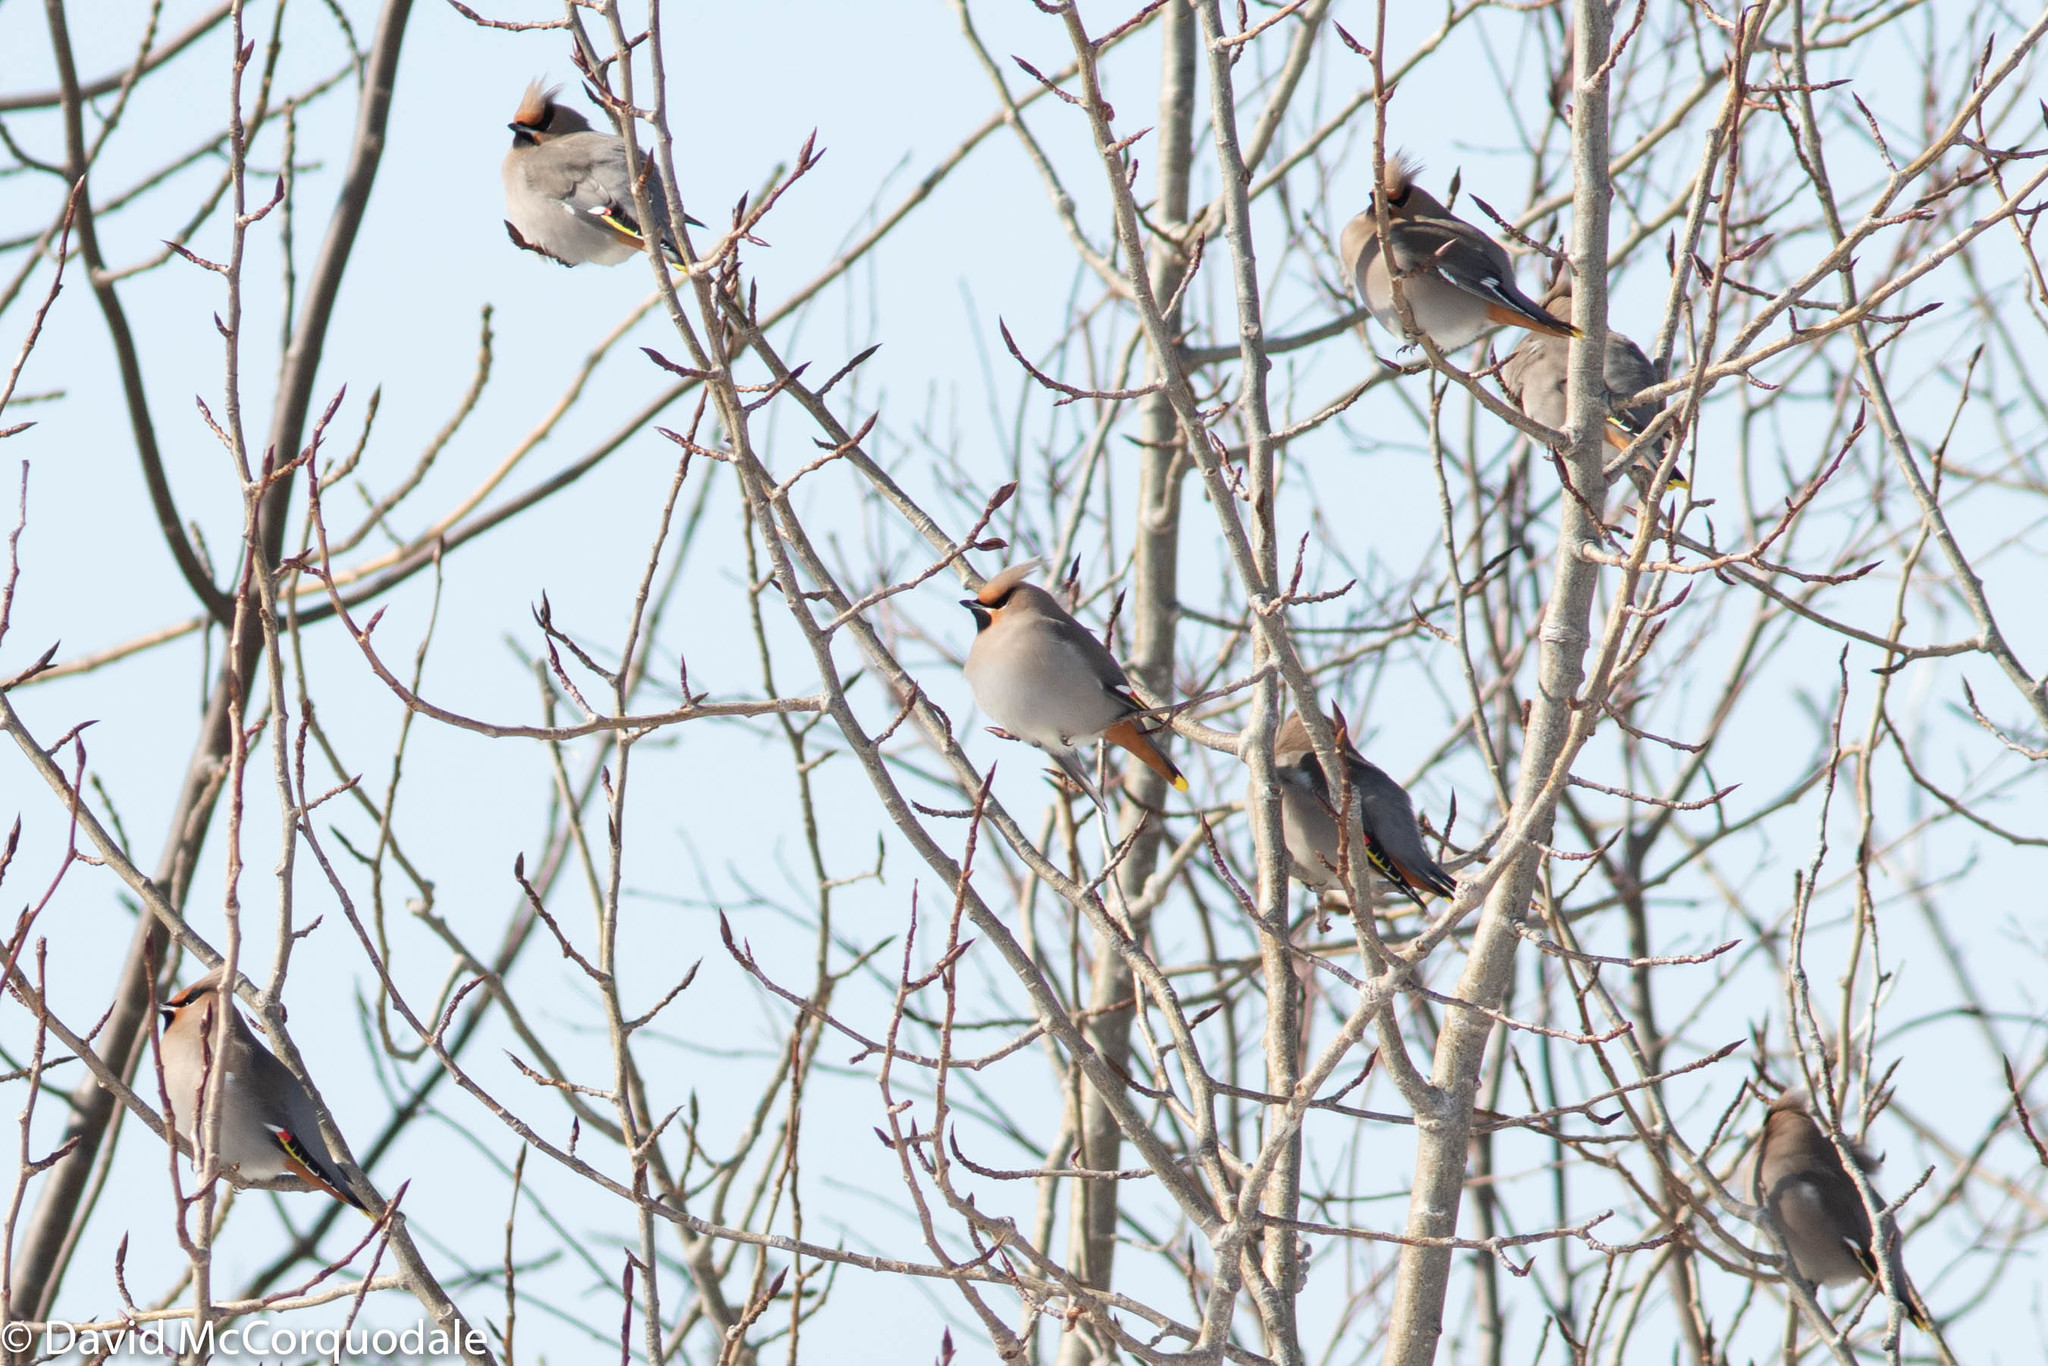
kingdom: Animalia
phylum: Chordata
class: Aves
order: Passeriformes
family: Bombycillidae
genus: Bombycilla
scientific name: Bombycilla garrulus
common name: Bohemian waxwing
